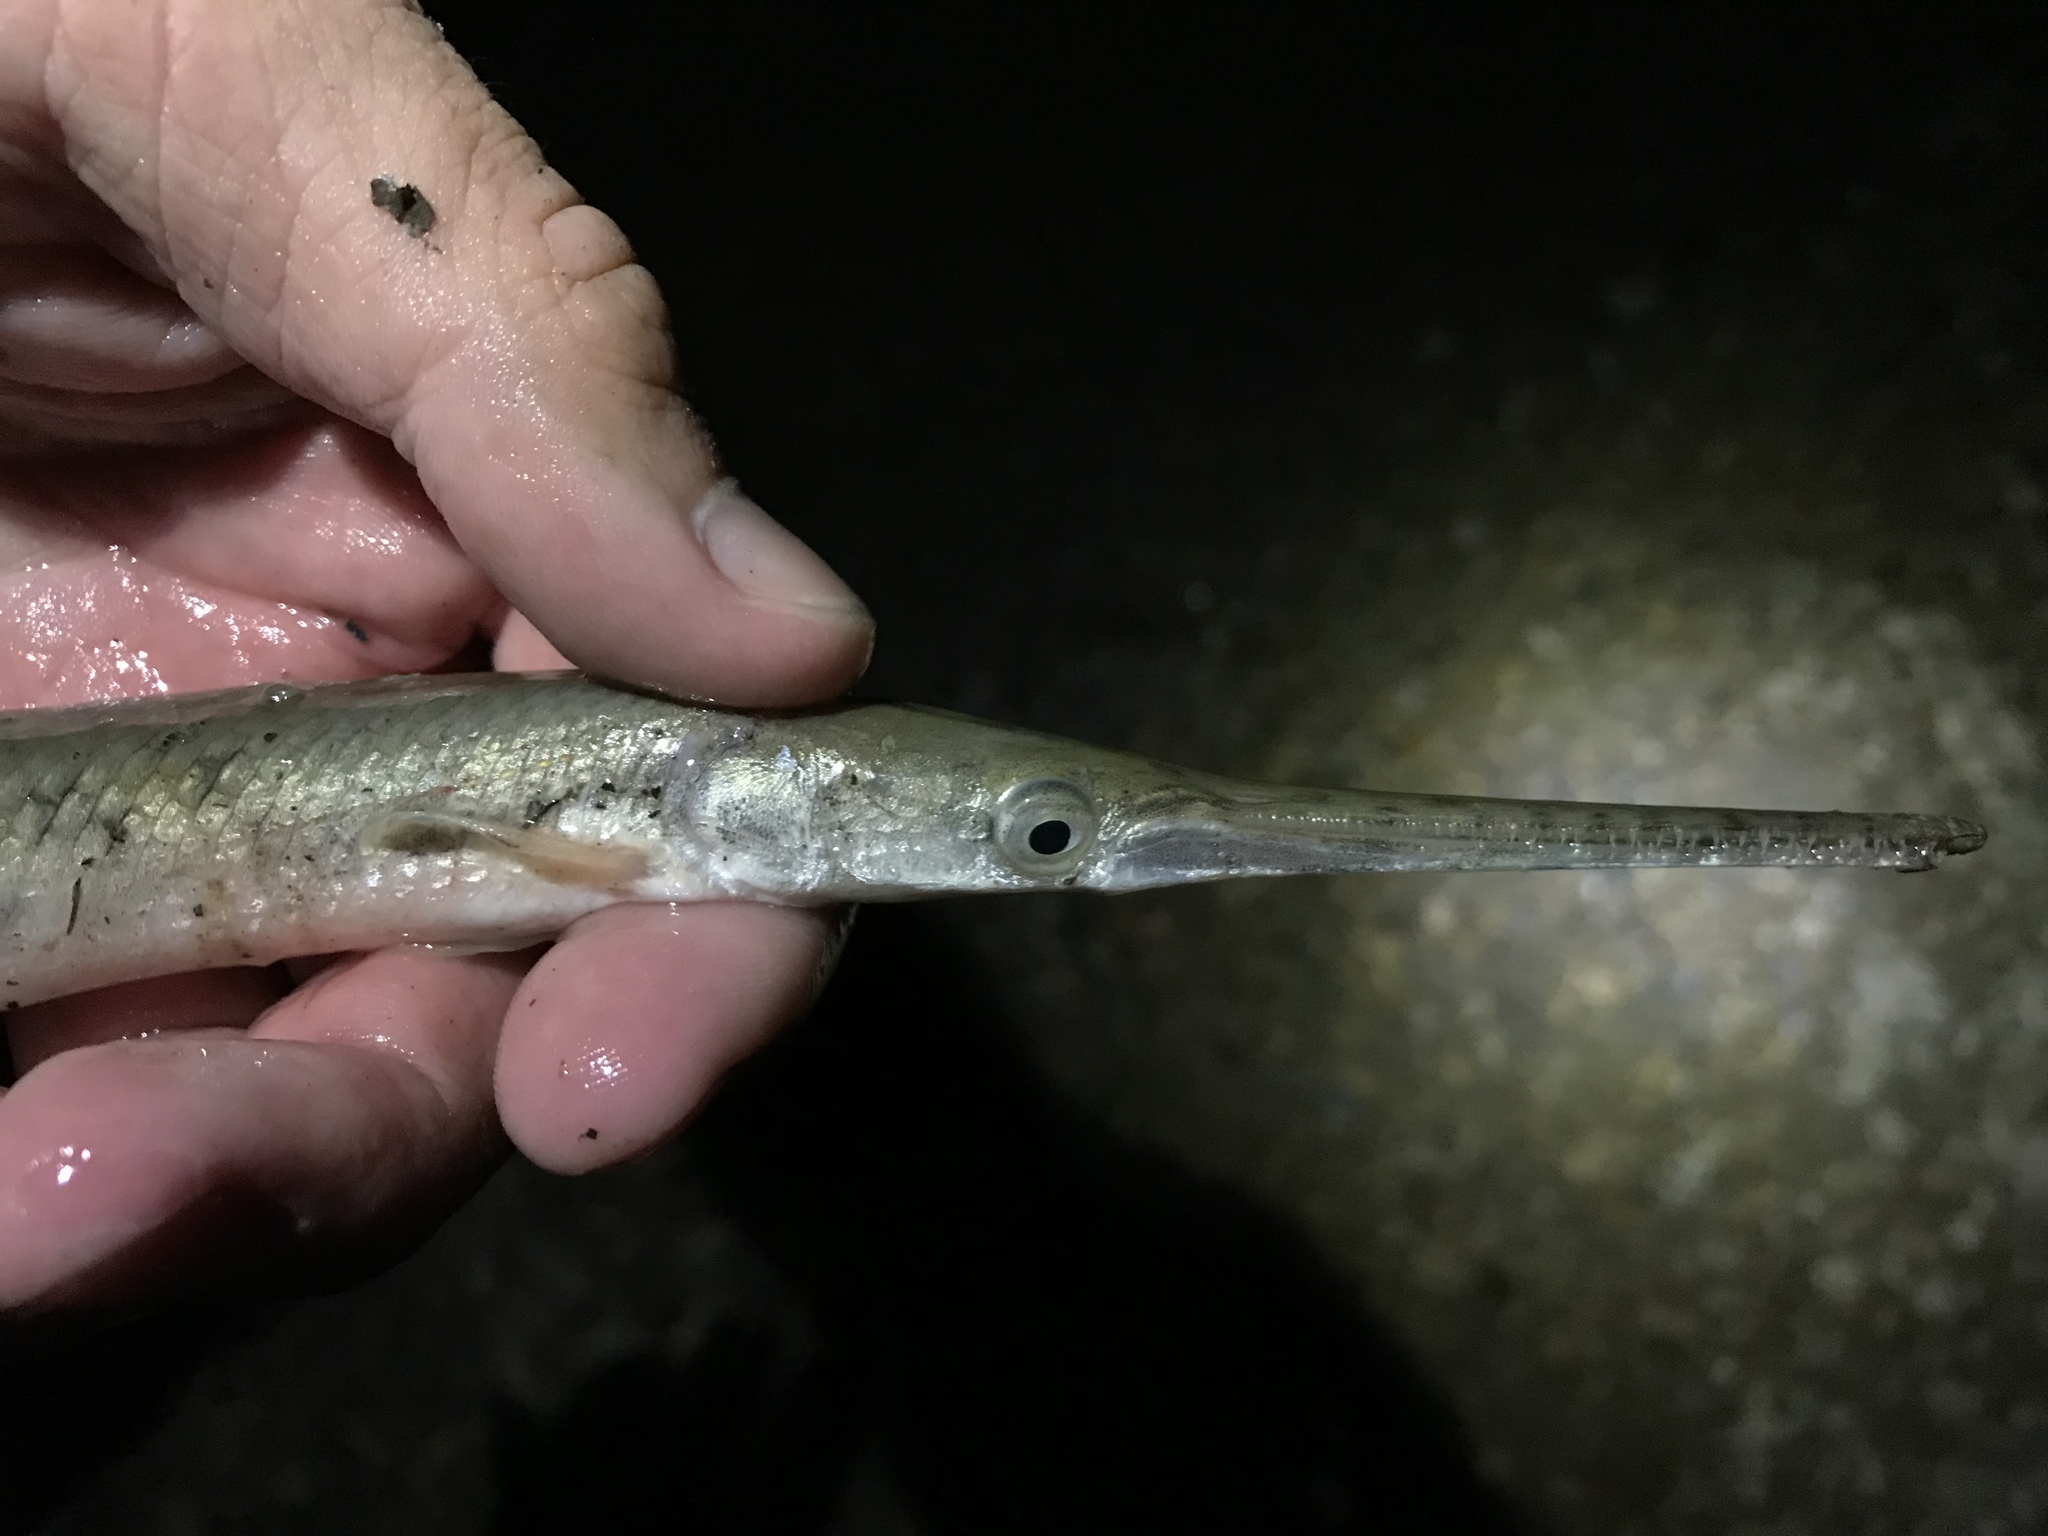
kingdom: Animalia
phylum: Chordata
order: Lepisosteiformes
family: Lepisosteidae
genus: Lepisosteus
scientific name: Lepisosteus osseus
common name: Longnose gar
